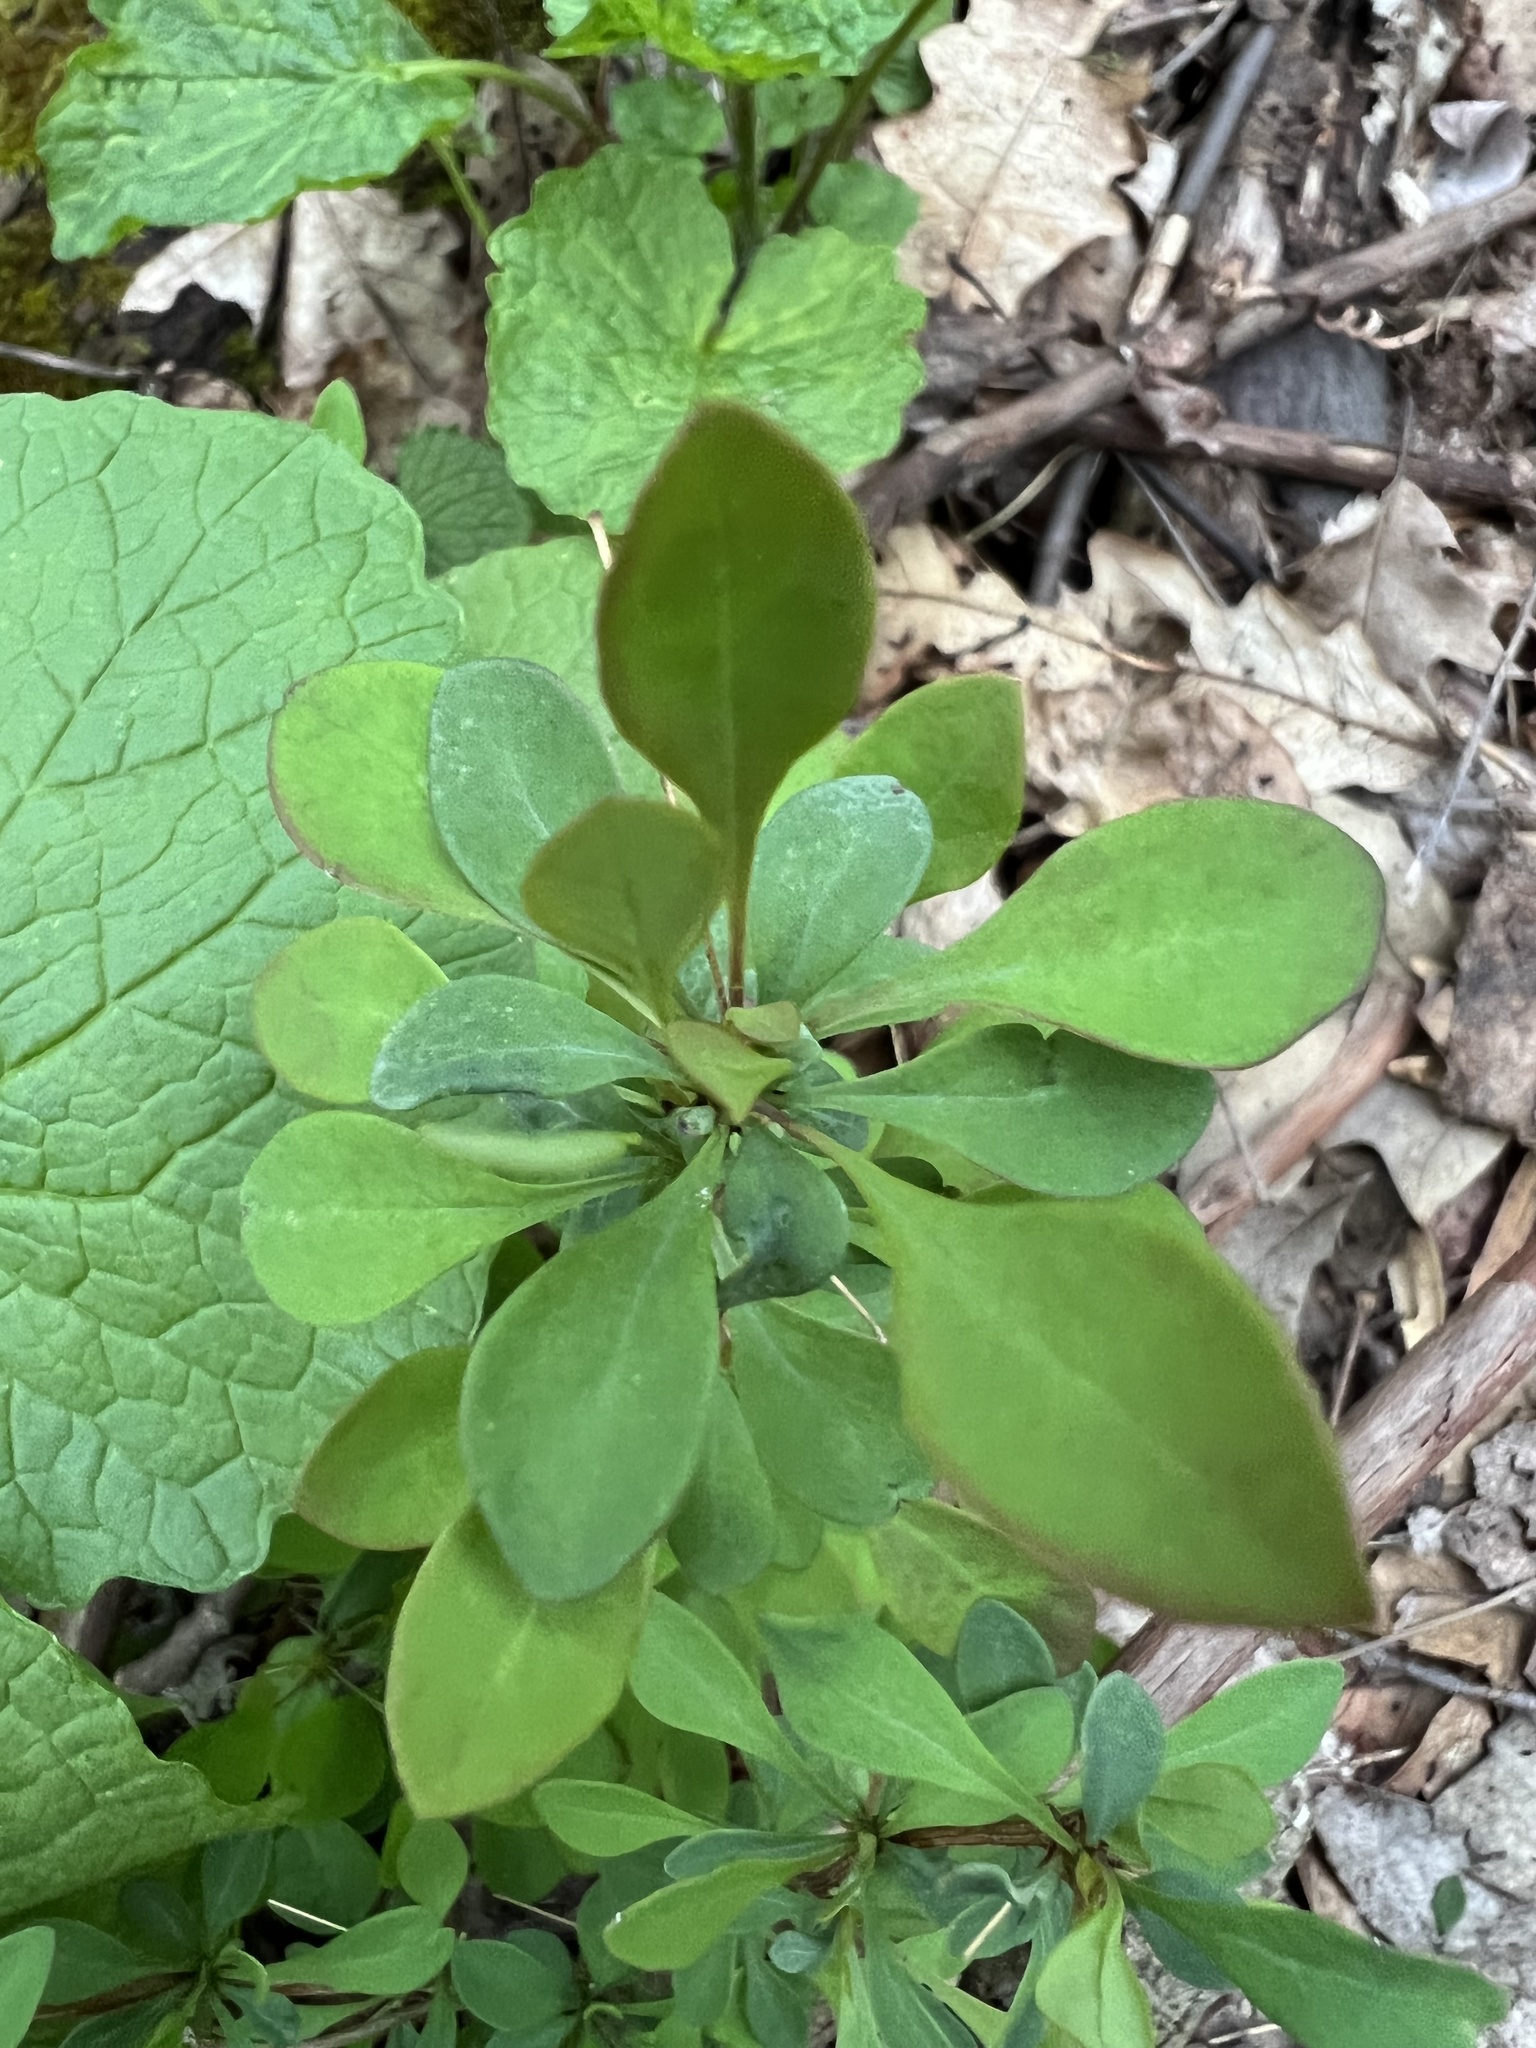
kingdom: Plantae
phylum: Tracheophyta
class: Magnoliopsida
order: Ranunculales
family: Berberidaceae
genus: Berberis
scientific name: Berberis thunbergii
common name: Japanese barberry
